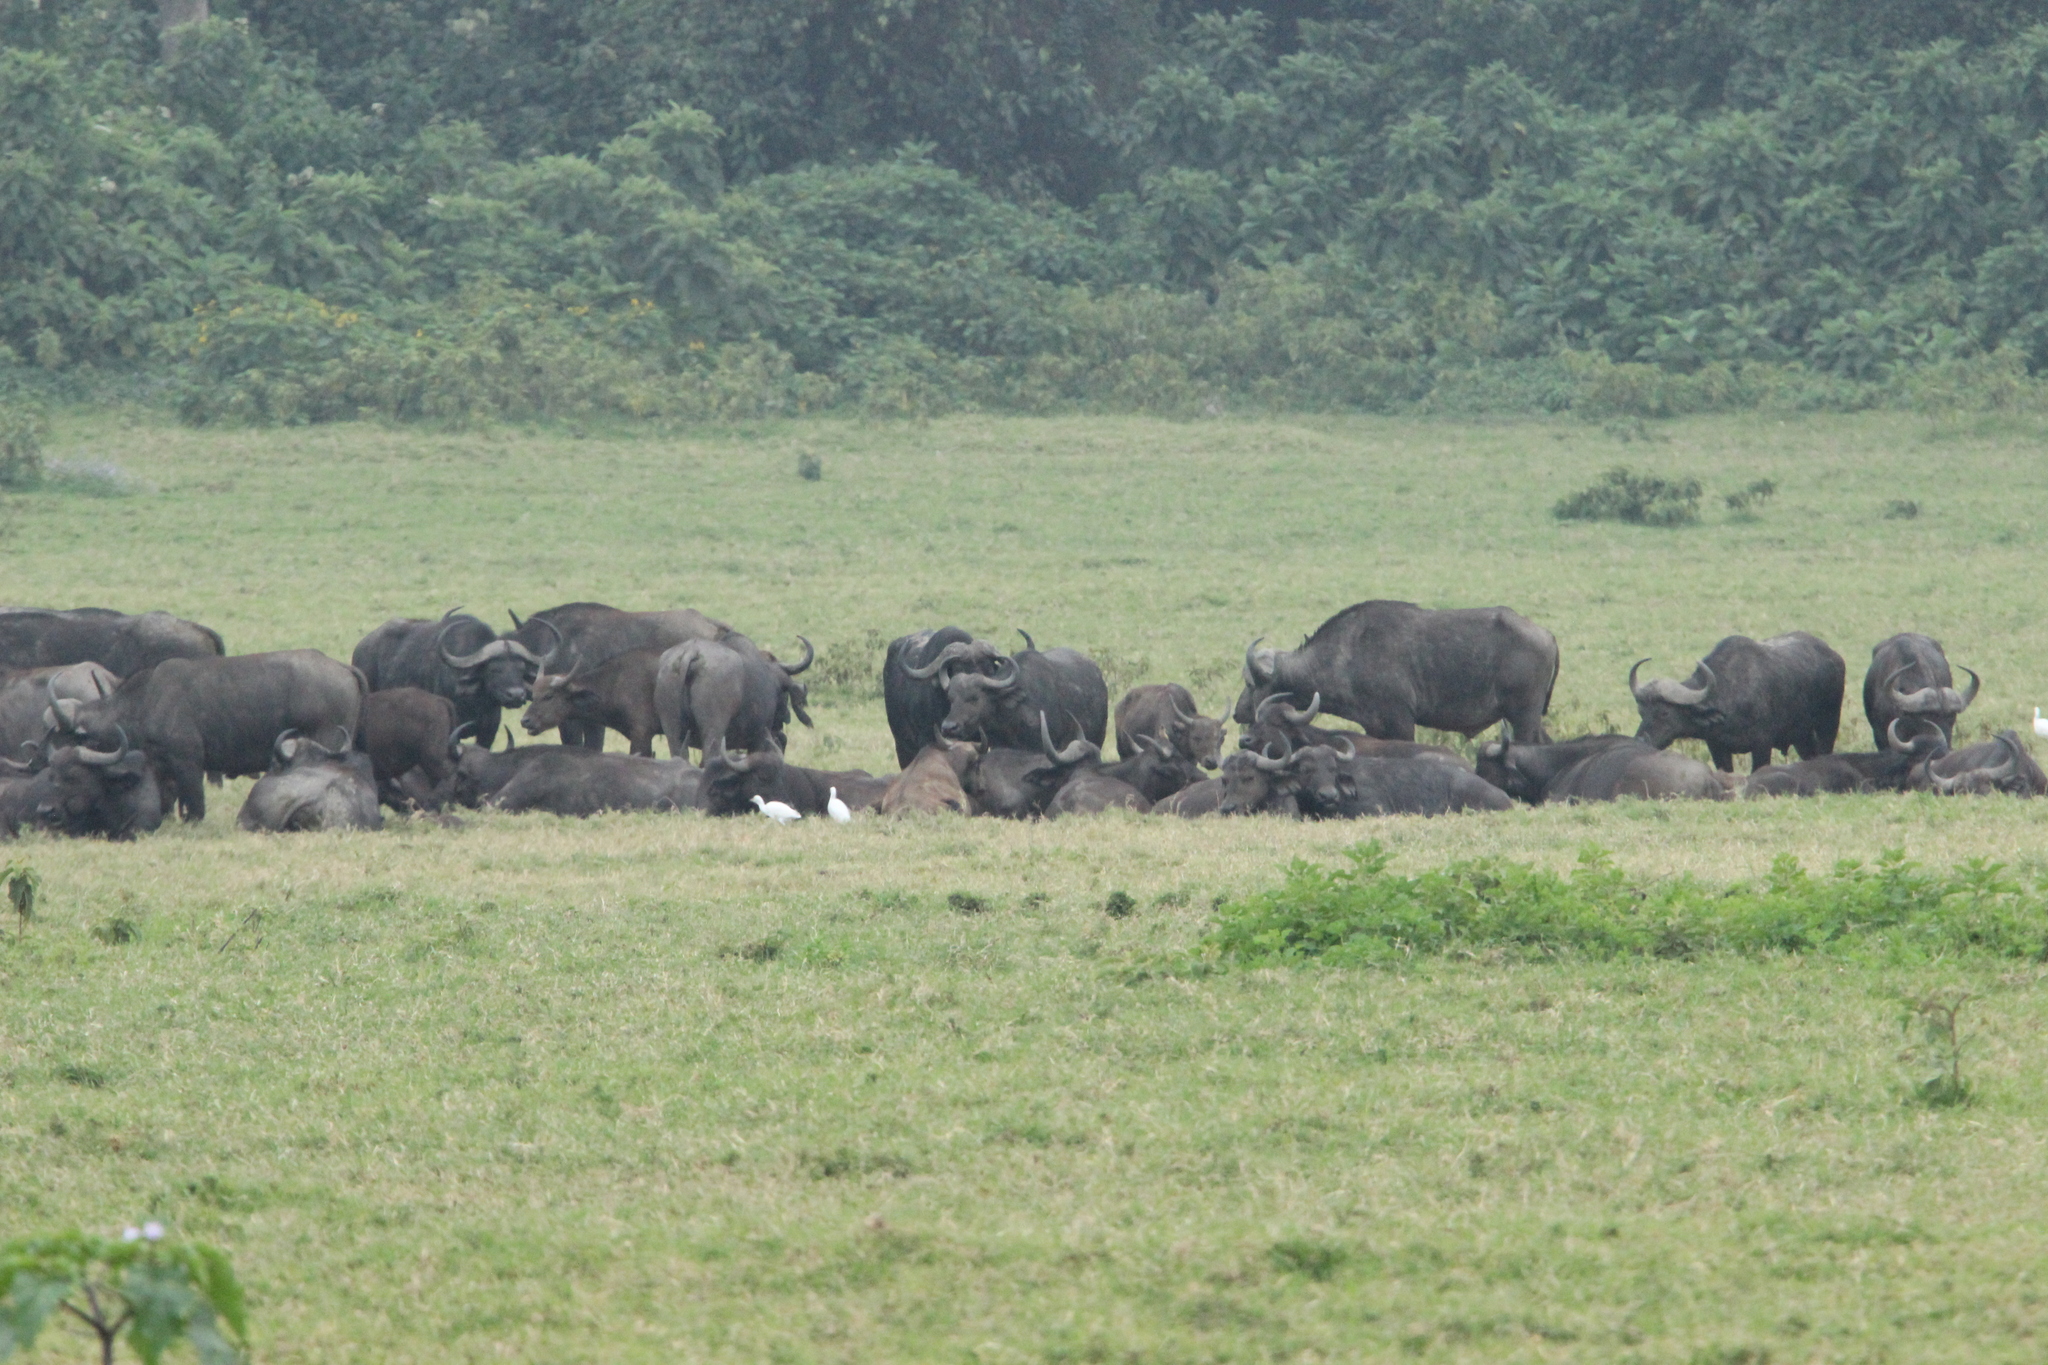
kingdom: Animalia
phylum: Chordata
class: Mammalia
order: Artiodactyla
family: Bovidae
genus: Syncerus
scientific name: Syncerus caffer
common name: African buffalo
